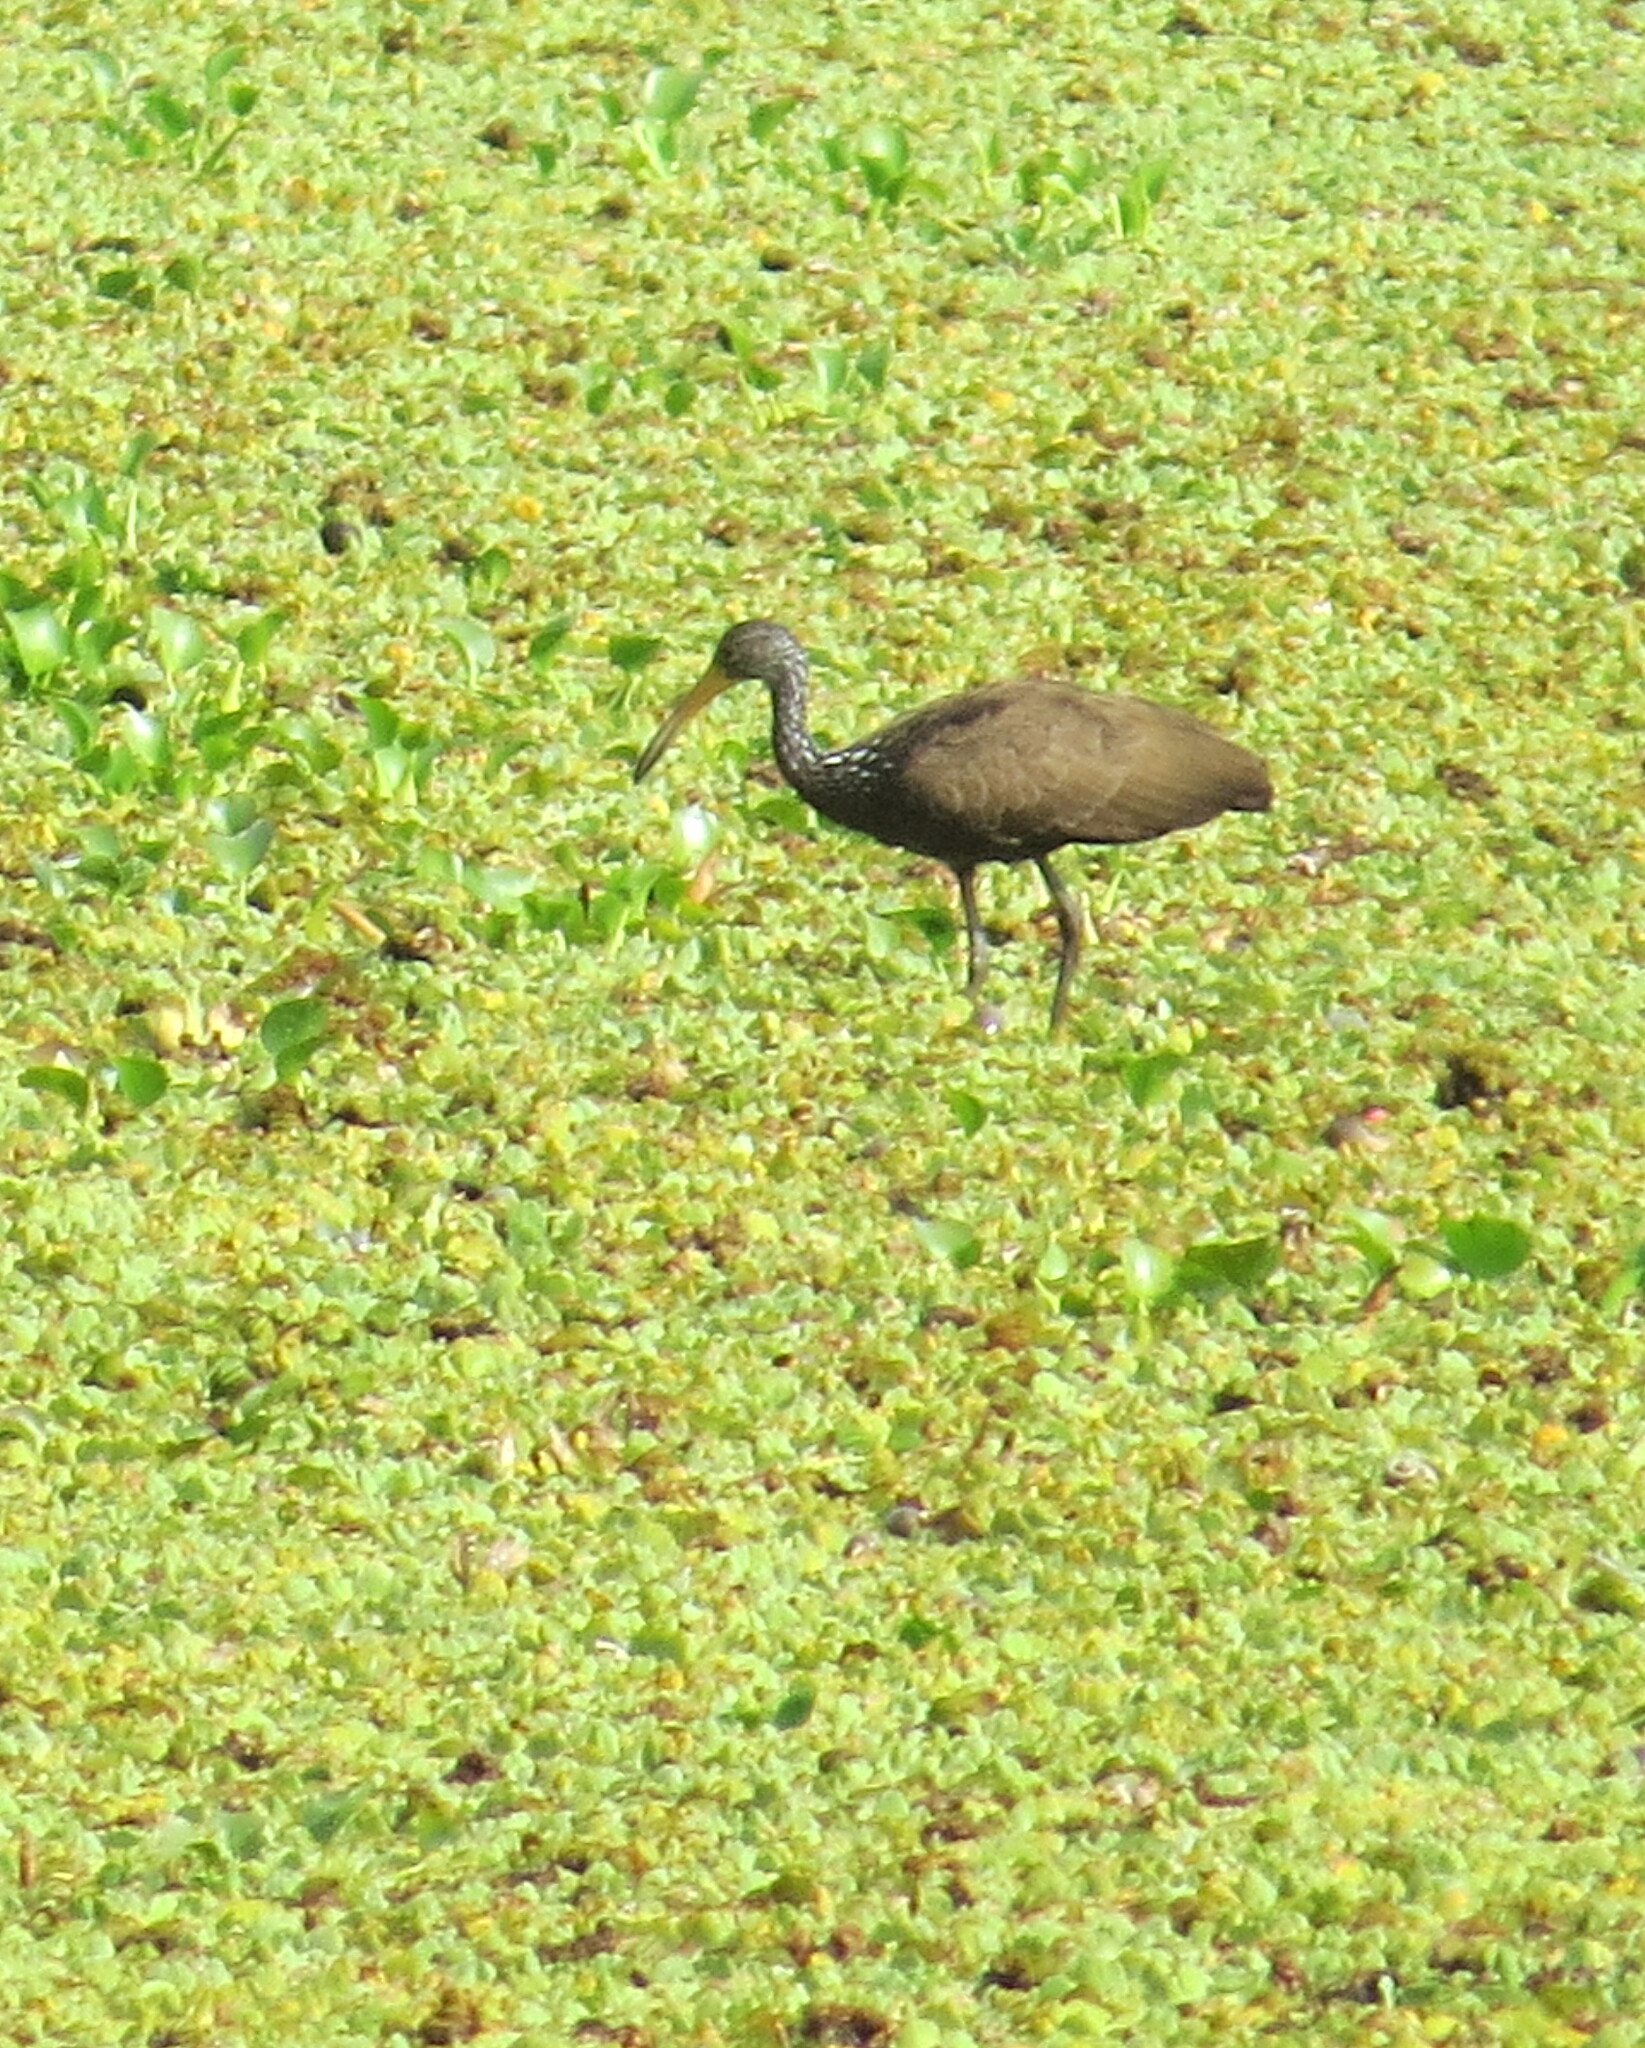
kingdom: Animalia
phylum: Chordata
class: Aves
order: Gruiformes
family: Aramidae
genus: Aramus
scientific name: Aramus guarauna
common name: Limpkin
